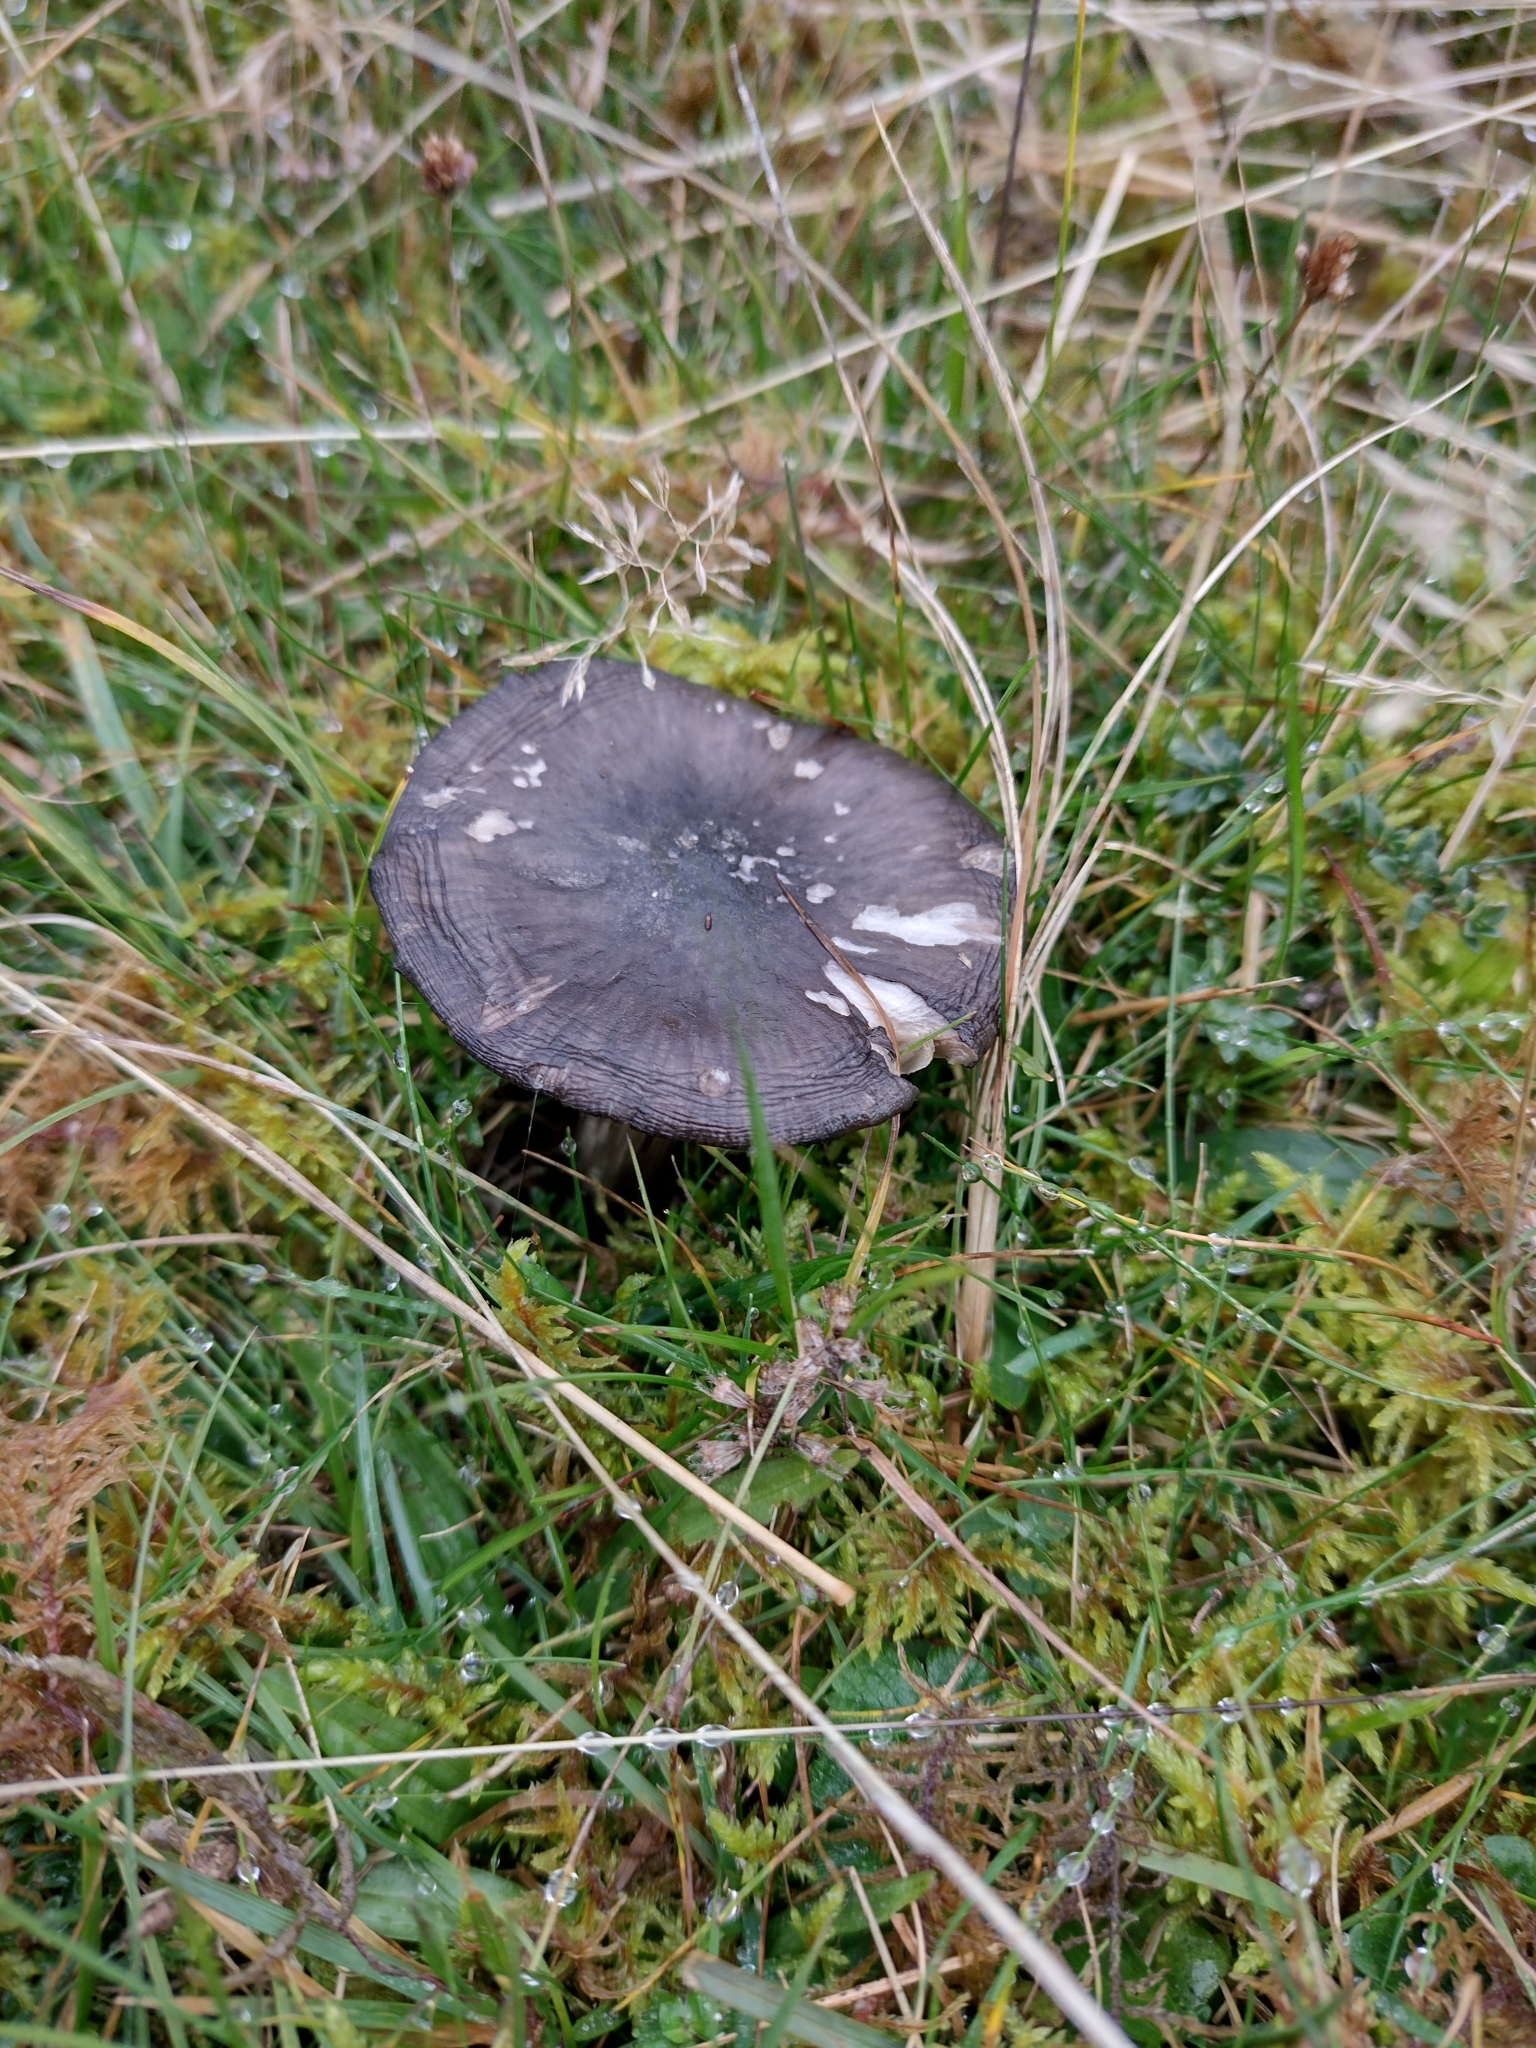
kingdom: Fungi
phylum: Basidiomycota
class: Agaricomycetes
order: Agaricales
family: Entolomataceae
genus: Entoloma
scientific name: Entoloma atromadidum
